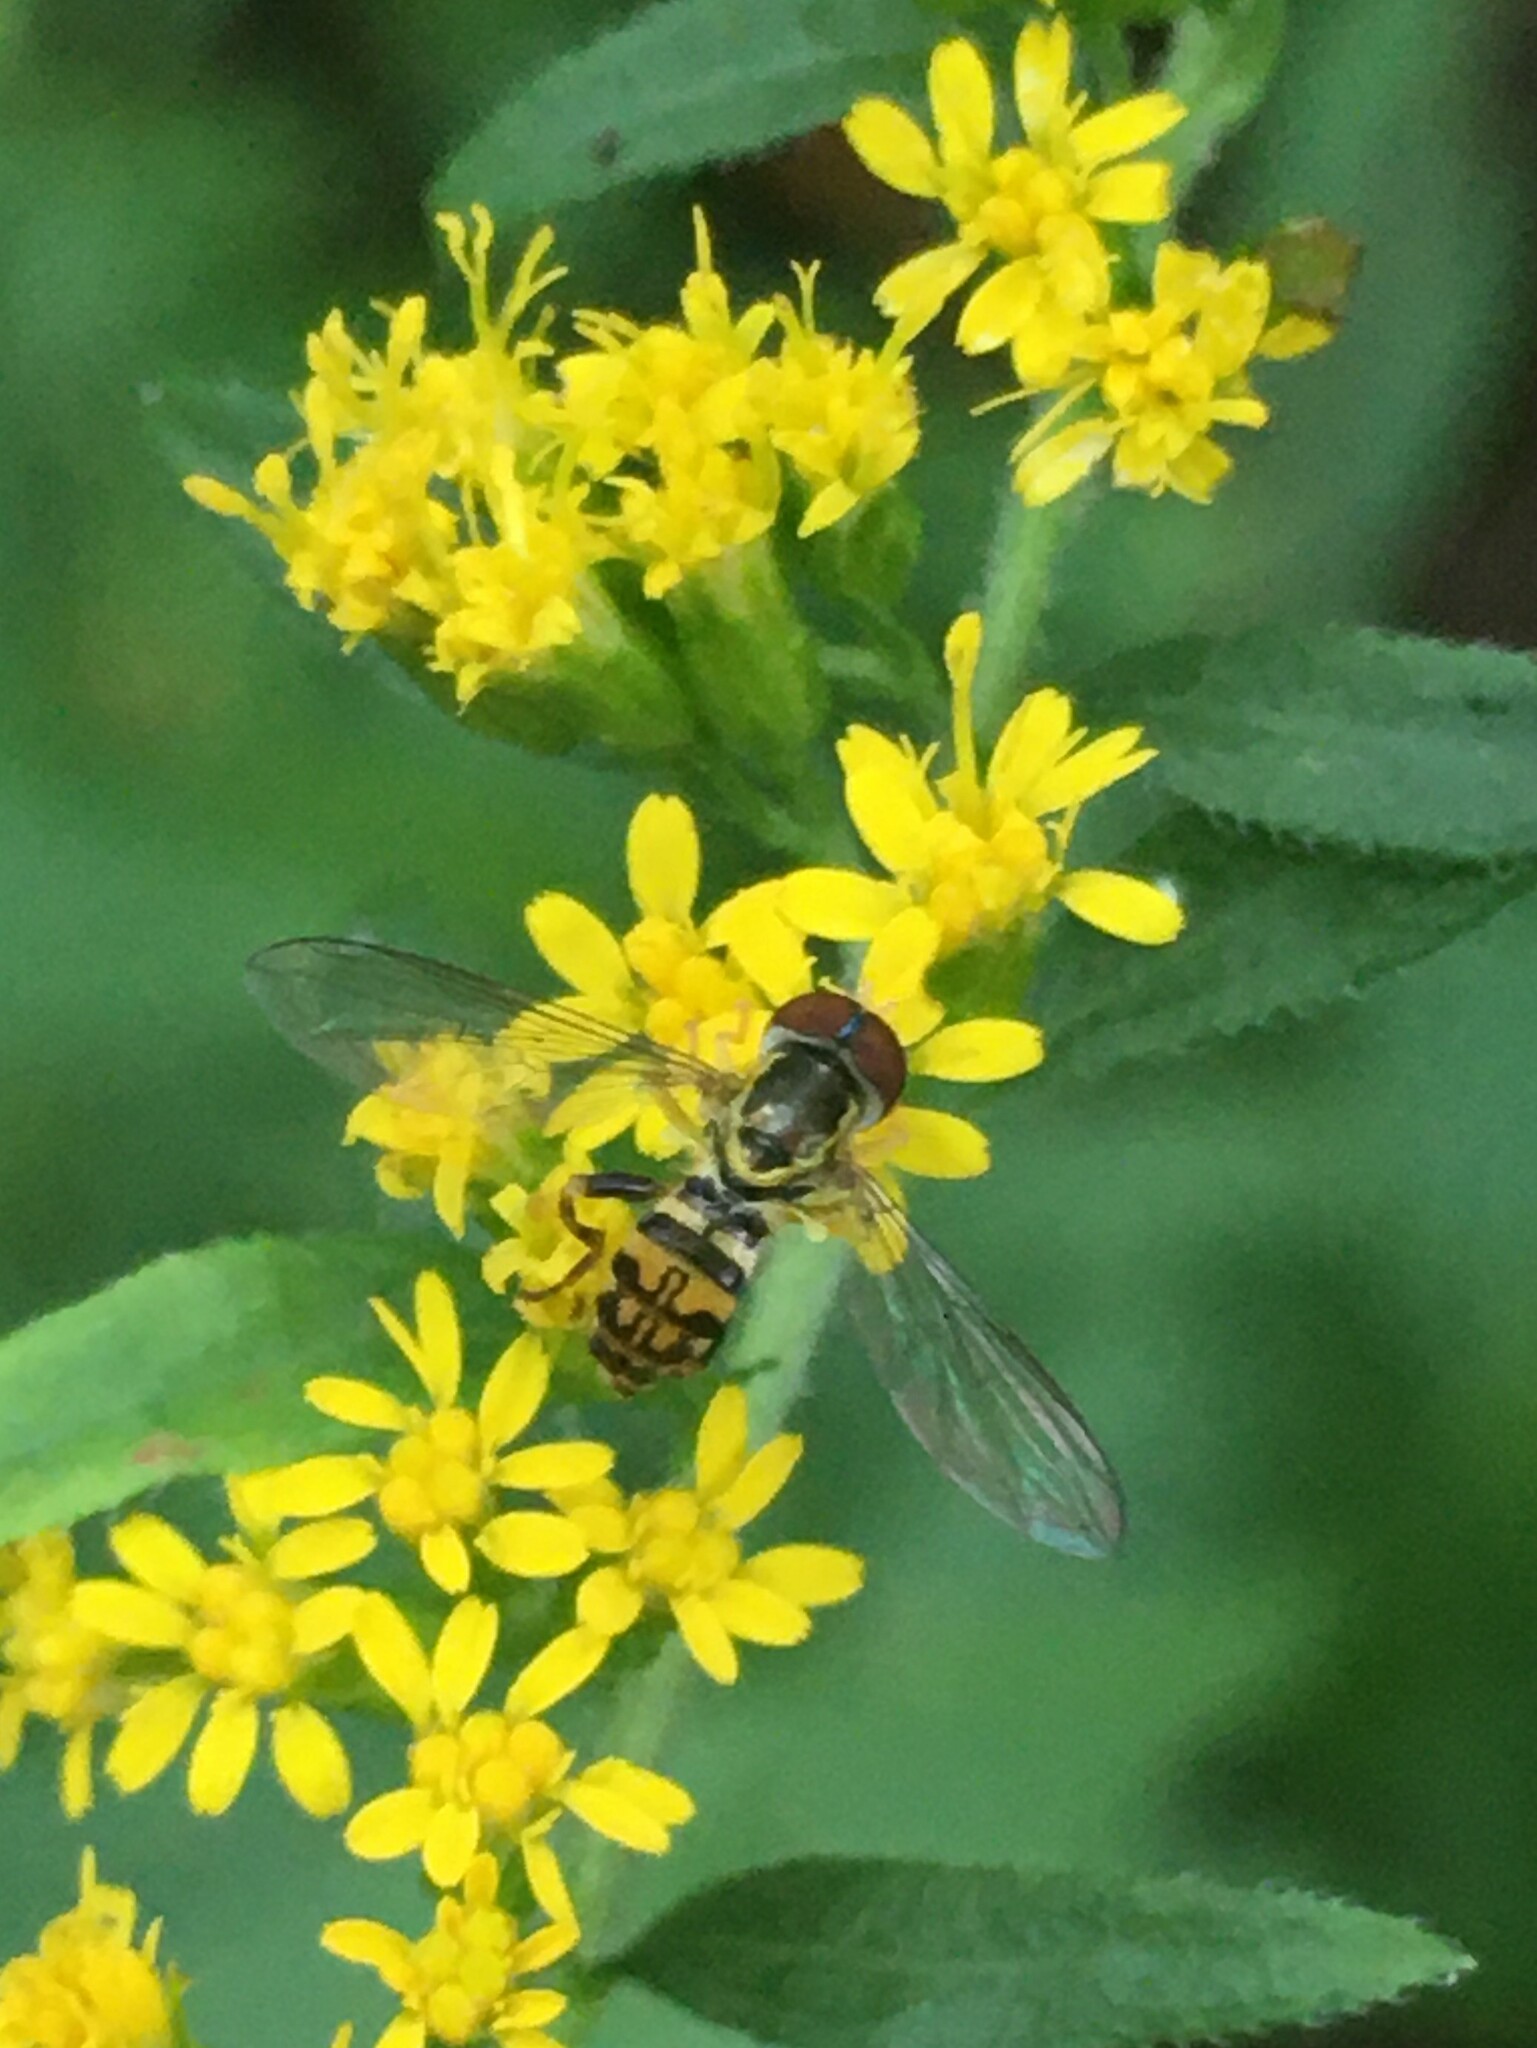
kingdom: Animalia
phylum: Arthropoda
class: Insecta
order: Diptera
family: Syrphidae
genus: Toxomerus
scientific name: Toxomerus geminatus
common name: Eastern calligrapher
